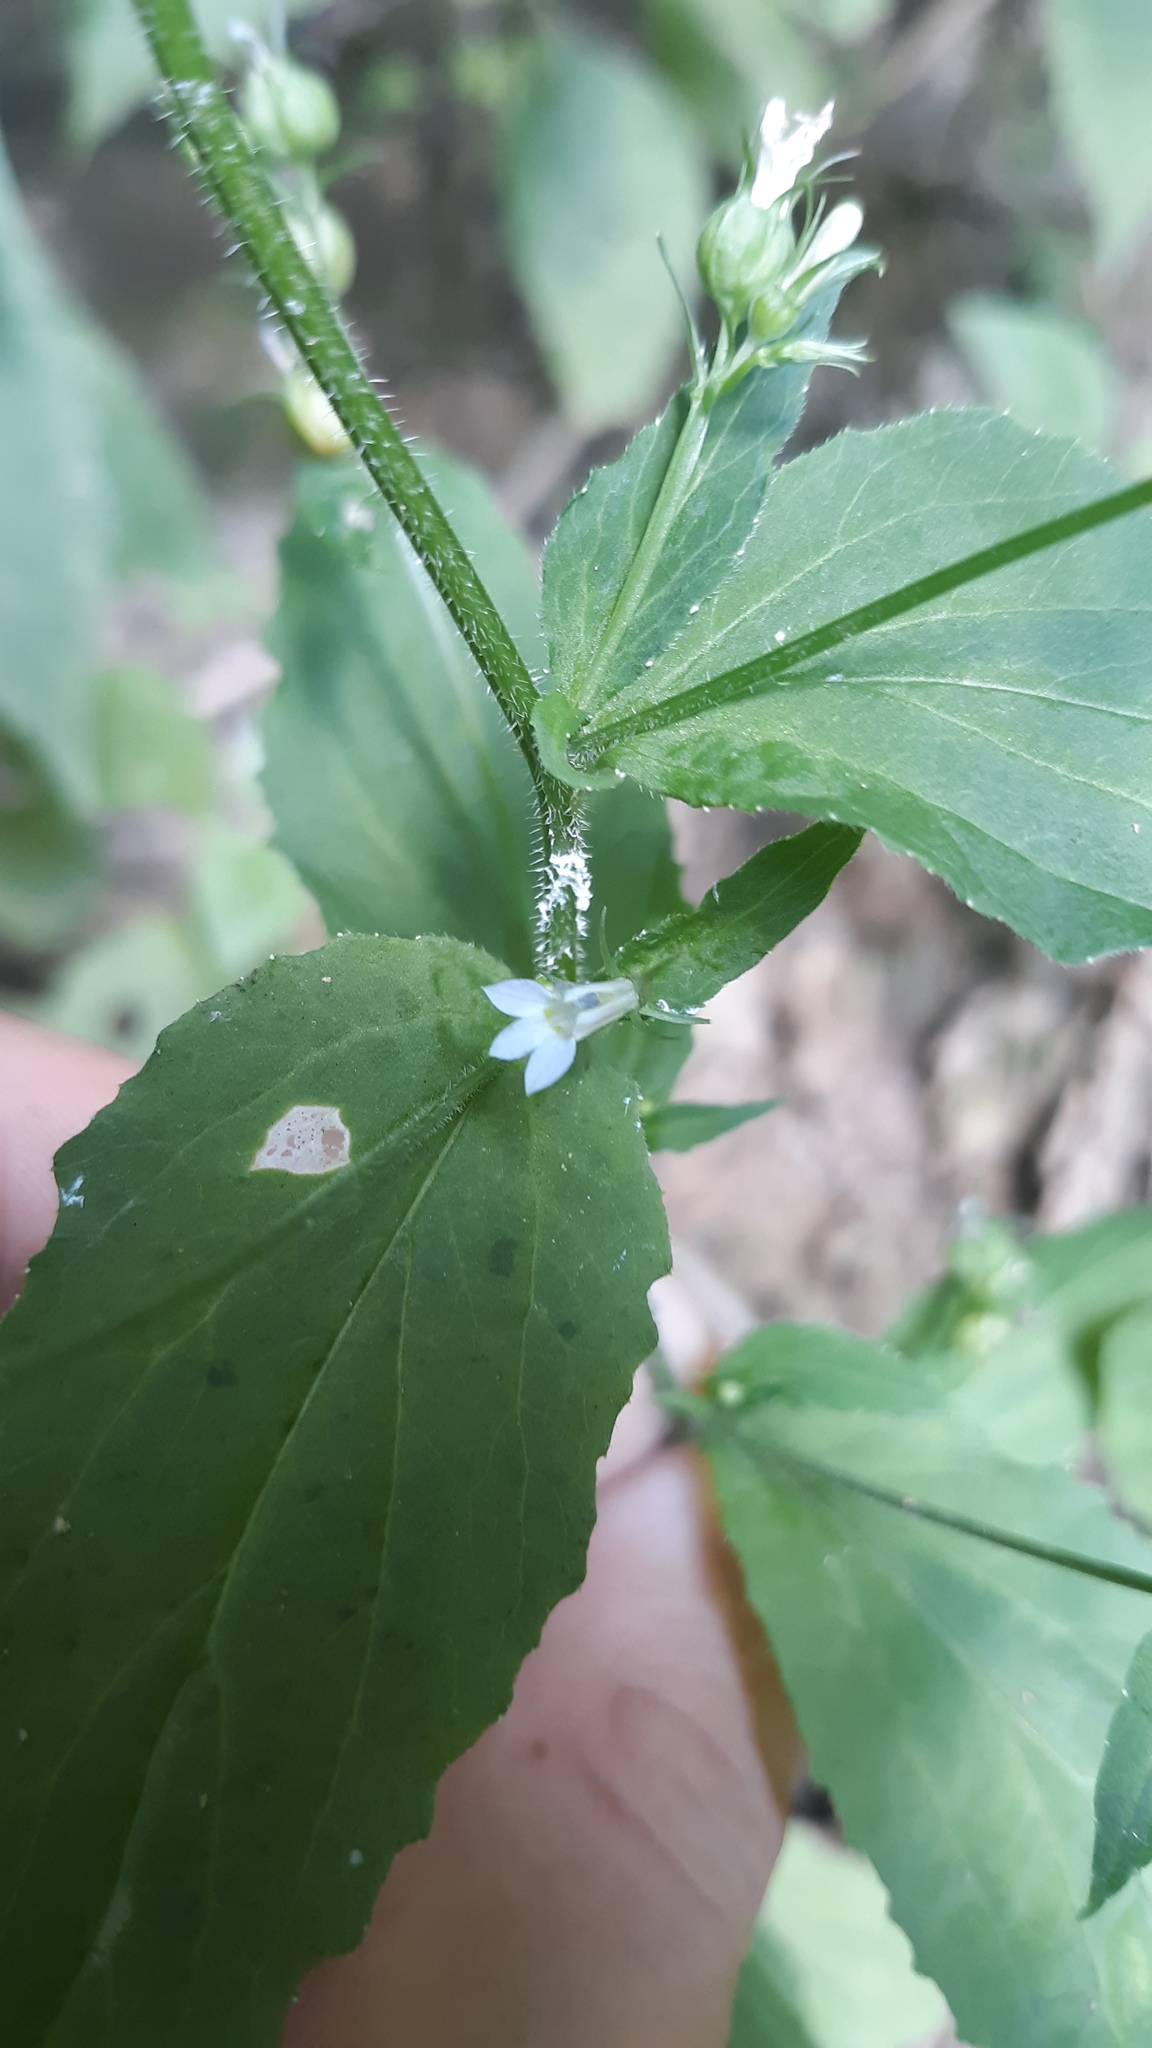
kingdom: Plantae
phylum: Tracheophyta
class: Magnoliopsida
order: Asterales
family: Campanulaceae
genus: Lobelia
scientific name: Lobelia inflata
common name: Indian tobacco
